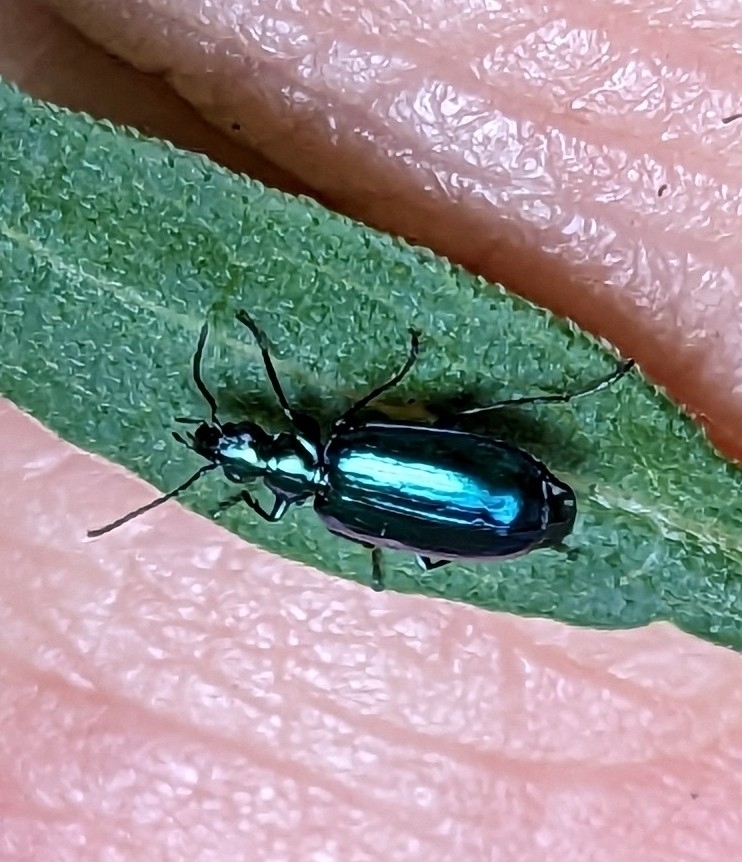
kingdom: Animalia
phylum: Arthropoda
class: Insecta
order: Coleoptera
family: Carabidae
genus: Lebia
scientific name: Lebia viridis
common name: Flower lebia beetle
